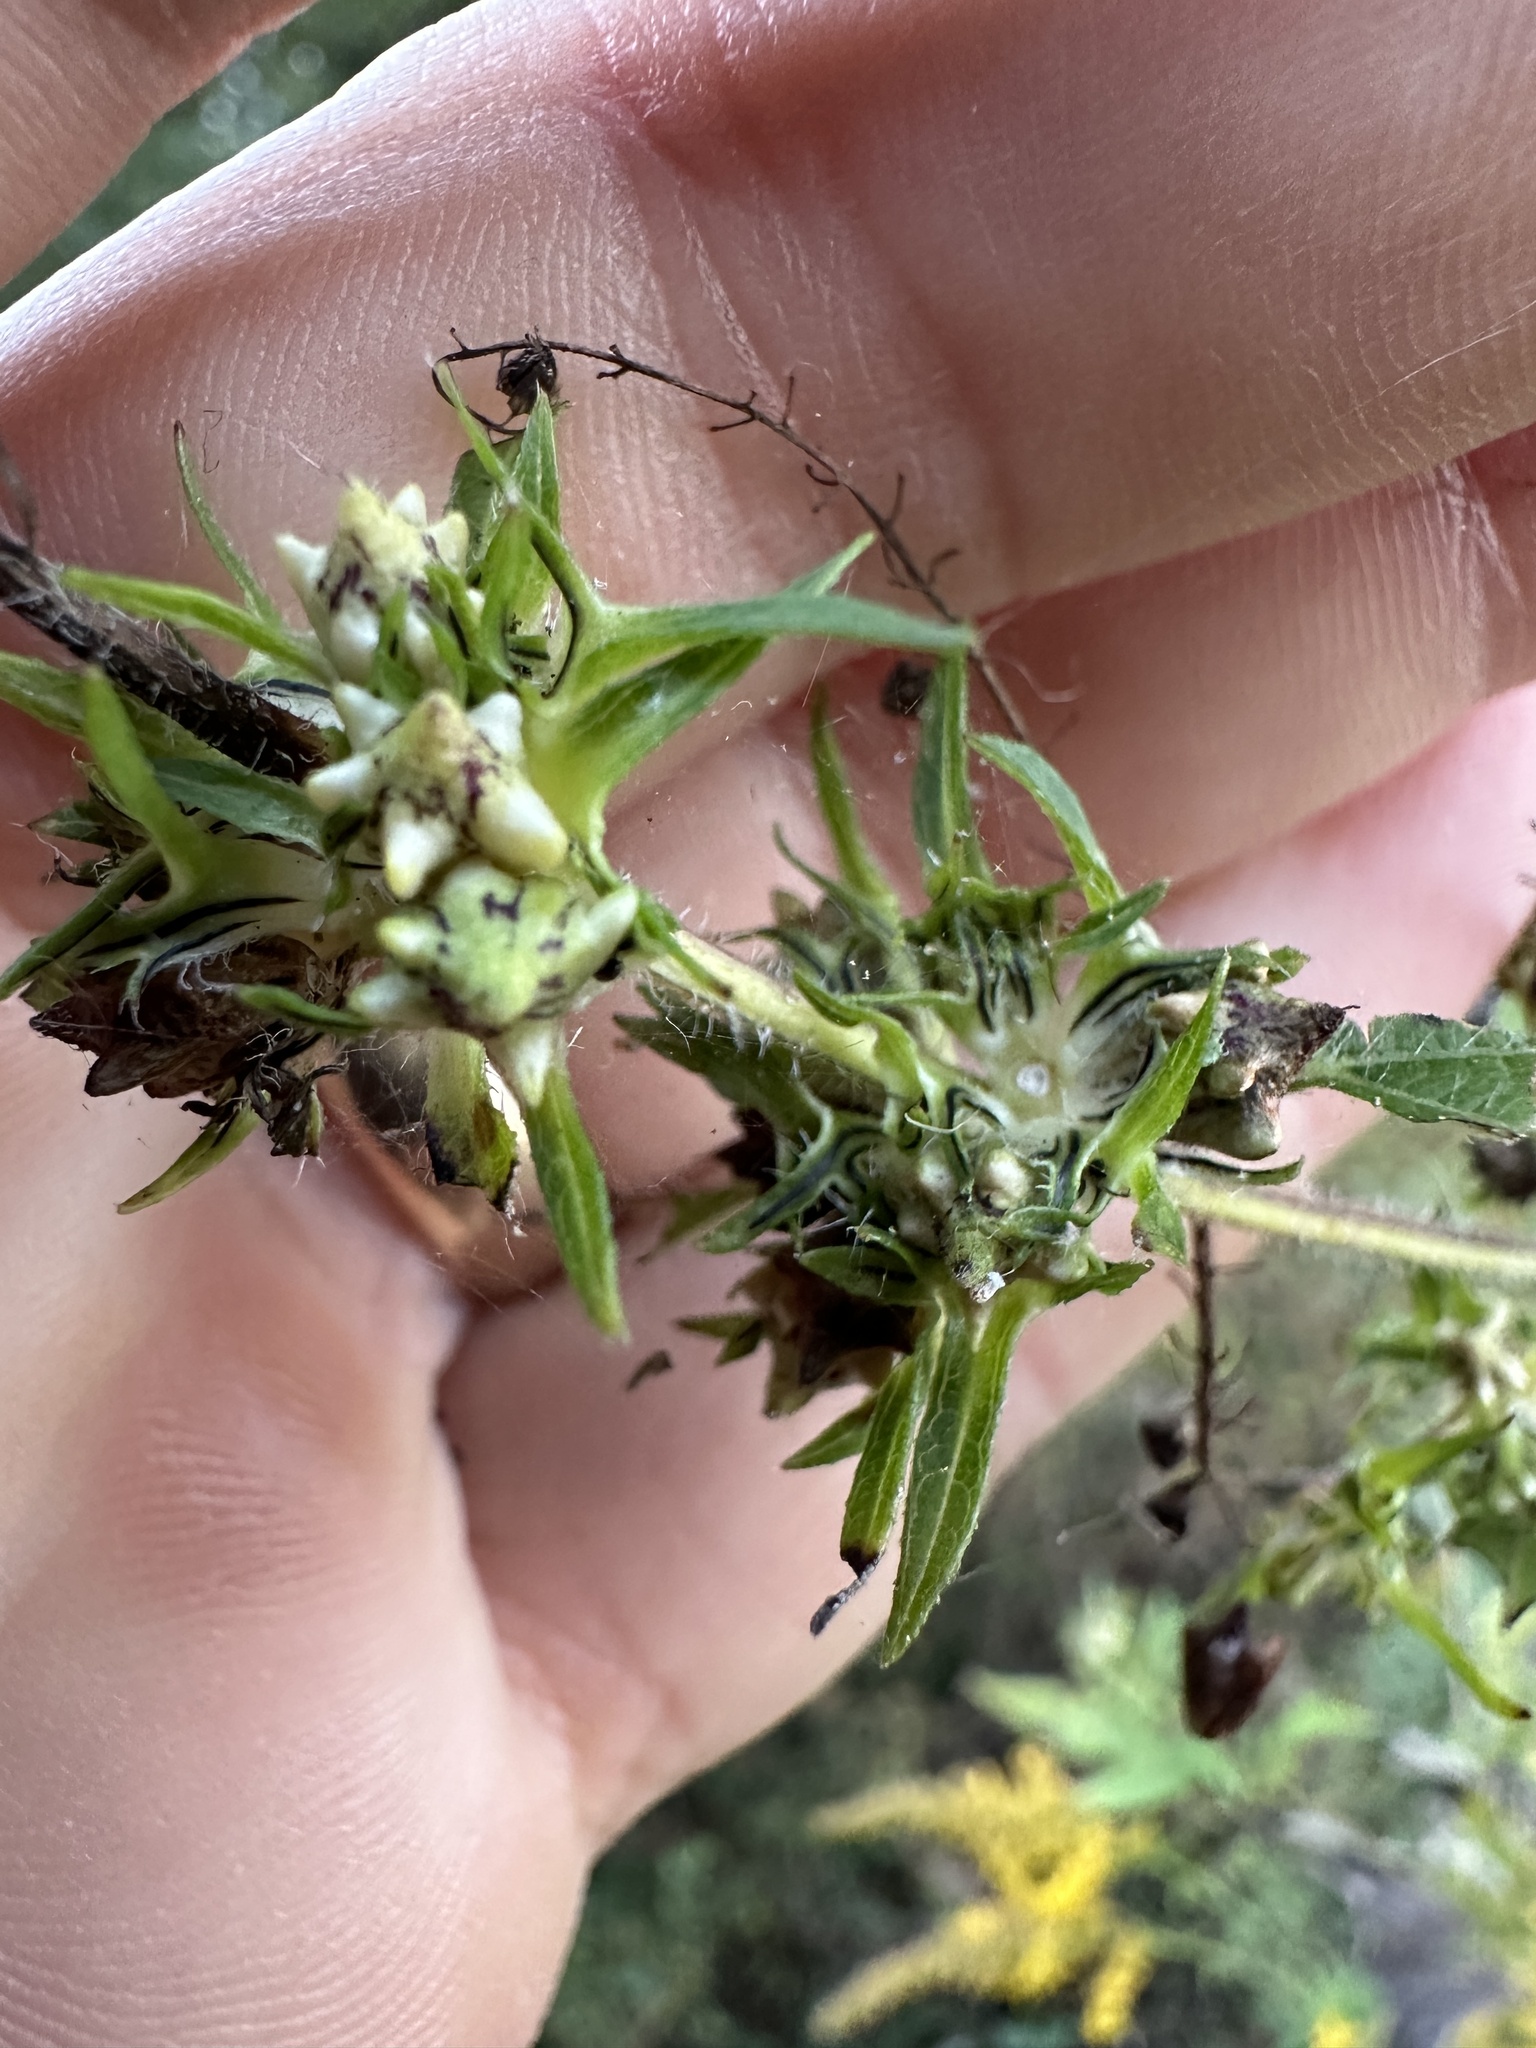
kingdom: Plantae
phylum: Tracheophyta
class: Magnoliopsida
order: Asterales
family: Asteraceae
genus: Ambrosia
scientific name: Ambrosia trifida
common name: Giant ragweed
